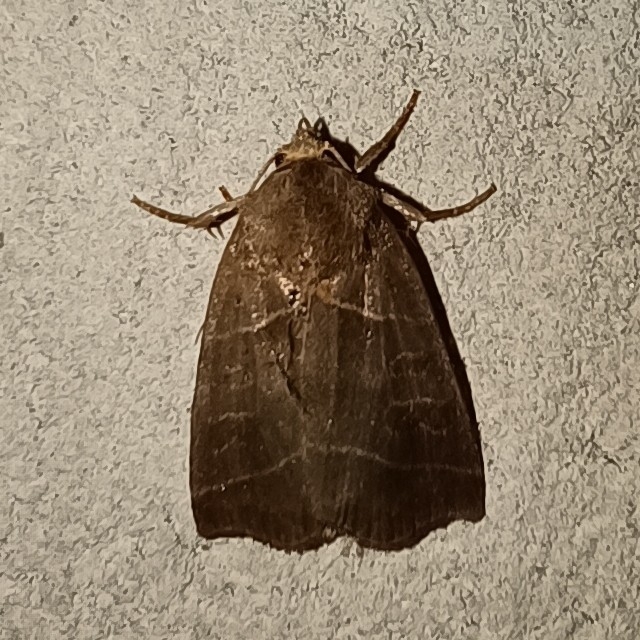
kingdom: Animalia
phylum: Arthropoda
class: Insecta
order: Lepidoptera
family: Noctuidae
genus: Ipimorpha
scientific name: Ipimorpha retusa
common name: Double kidney
